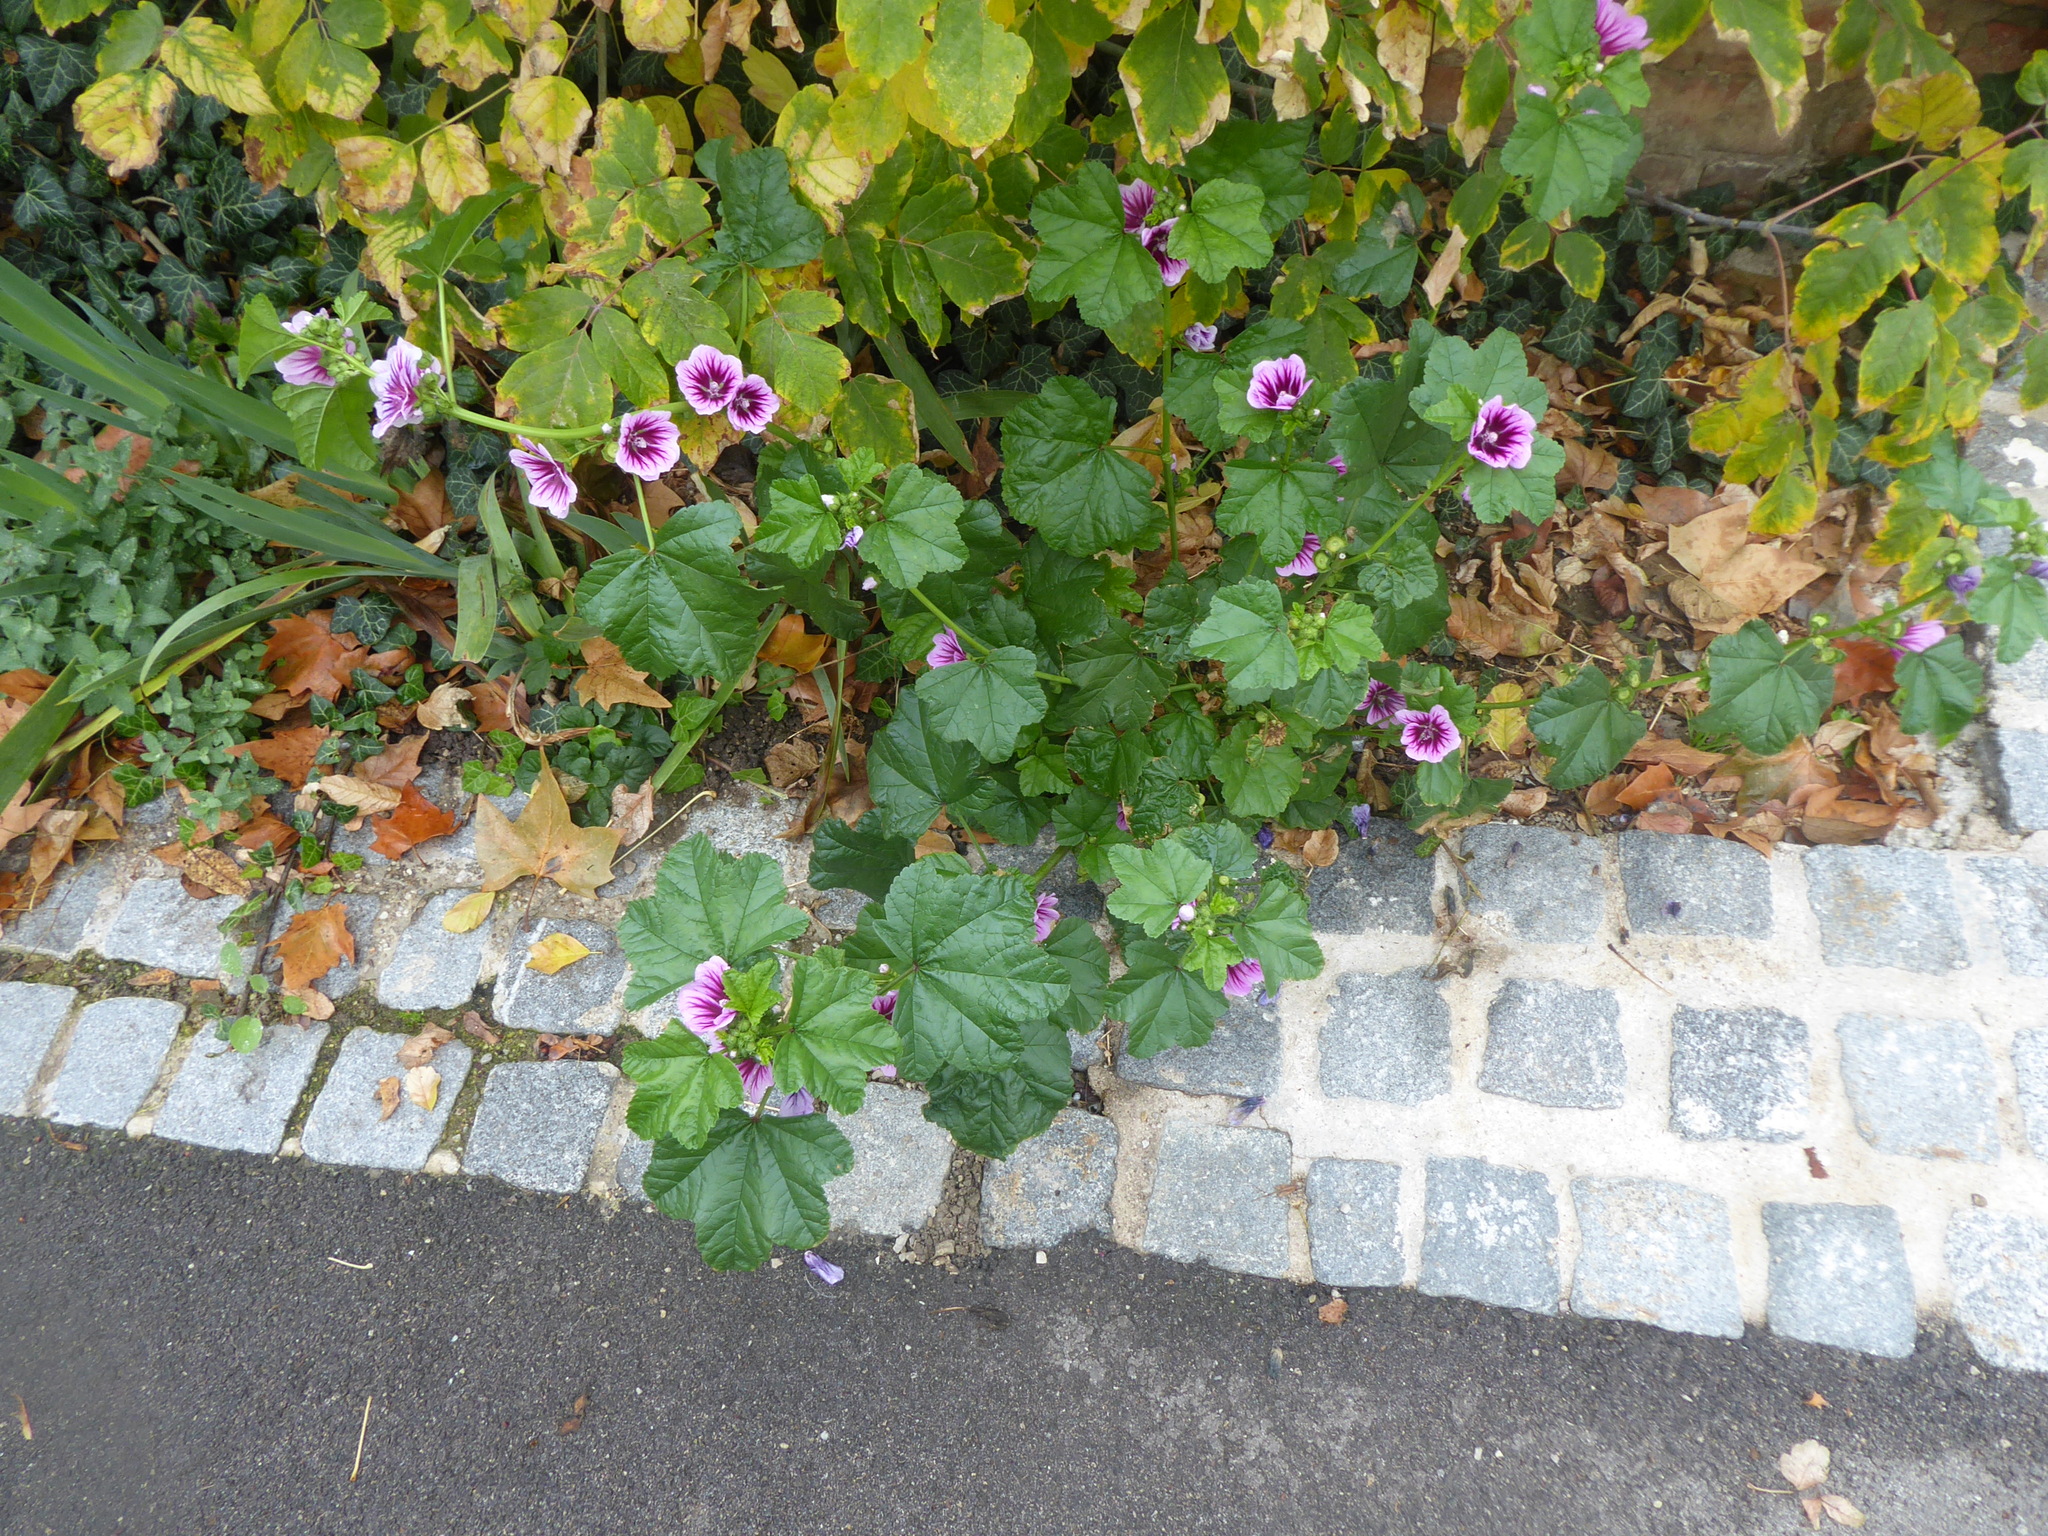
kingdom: Plantae
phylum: Tracheophyta
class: Magnoliopsida
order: Malvales
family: Malvaceae
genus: Malva
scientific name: Malva sylvestris
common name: Common mallow
